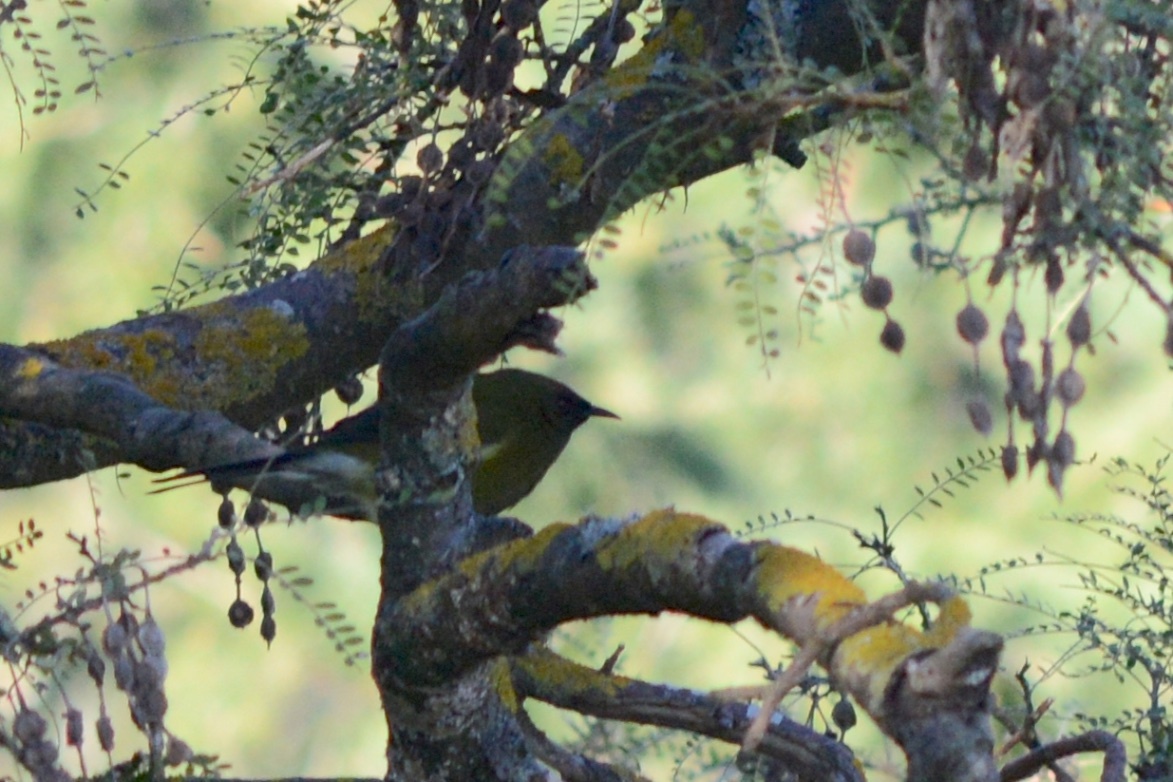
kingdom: Animalia
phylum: Chordata
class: Aves
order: Passeriformes
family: Meliphagidae
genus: Anthornis
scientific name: Anthornis melanura
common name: New zealand bellbird
